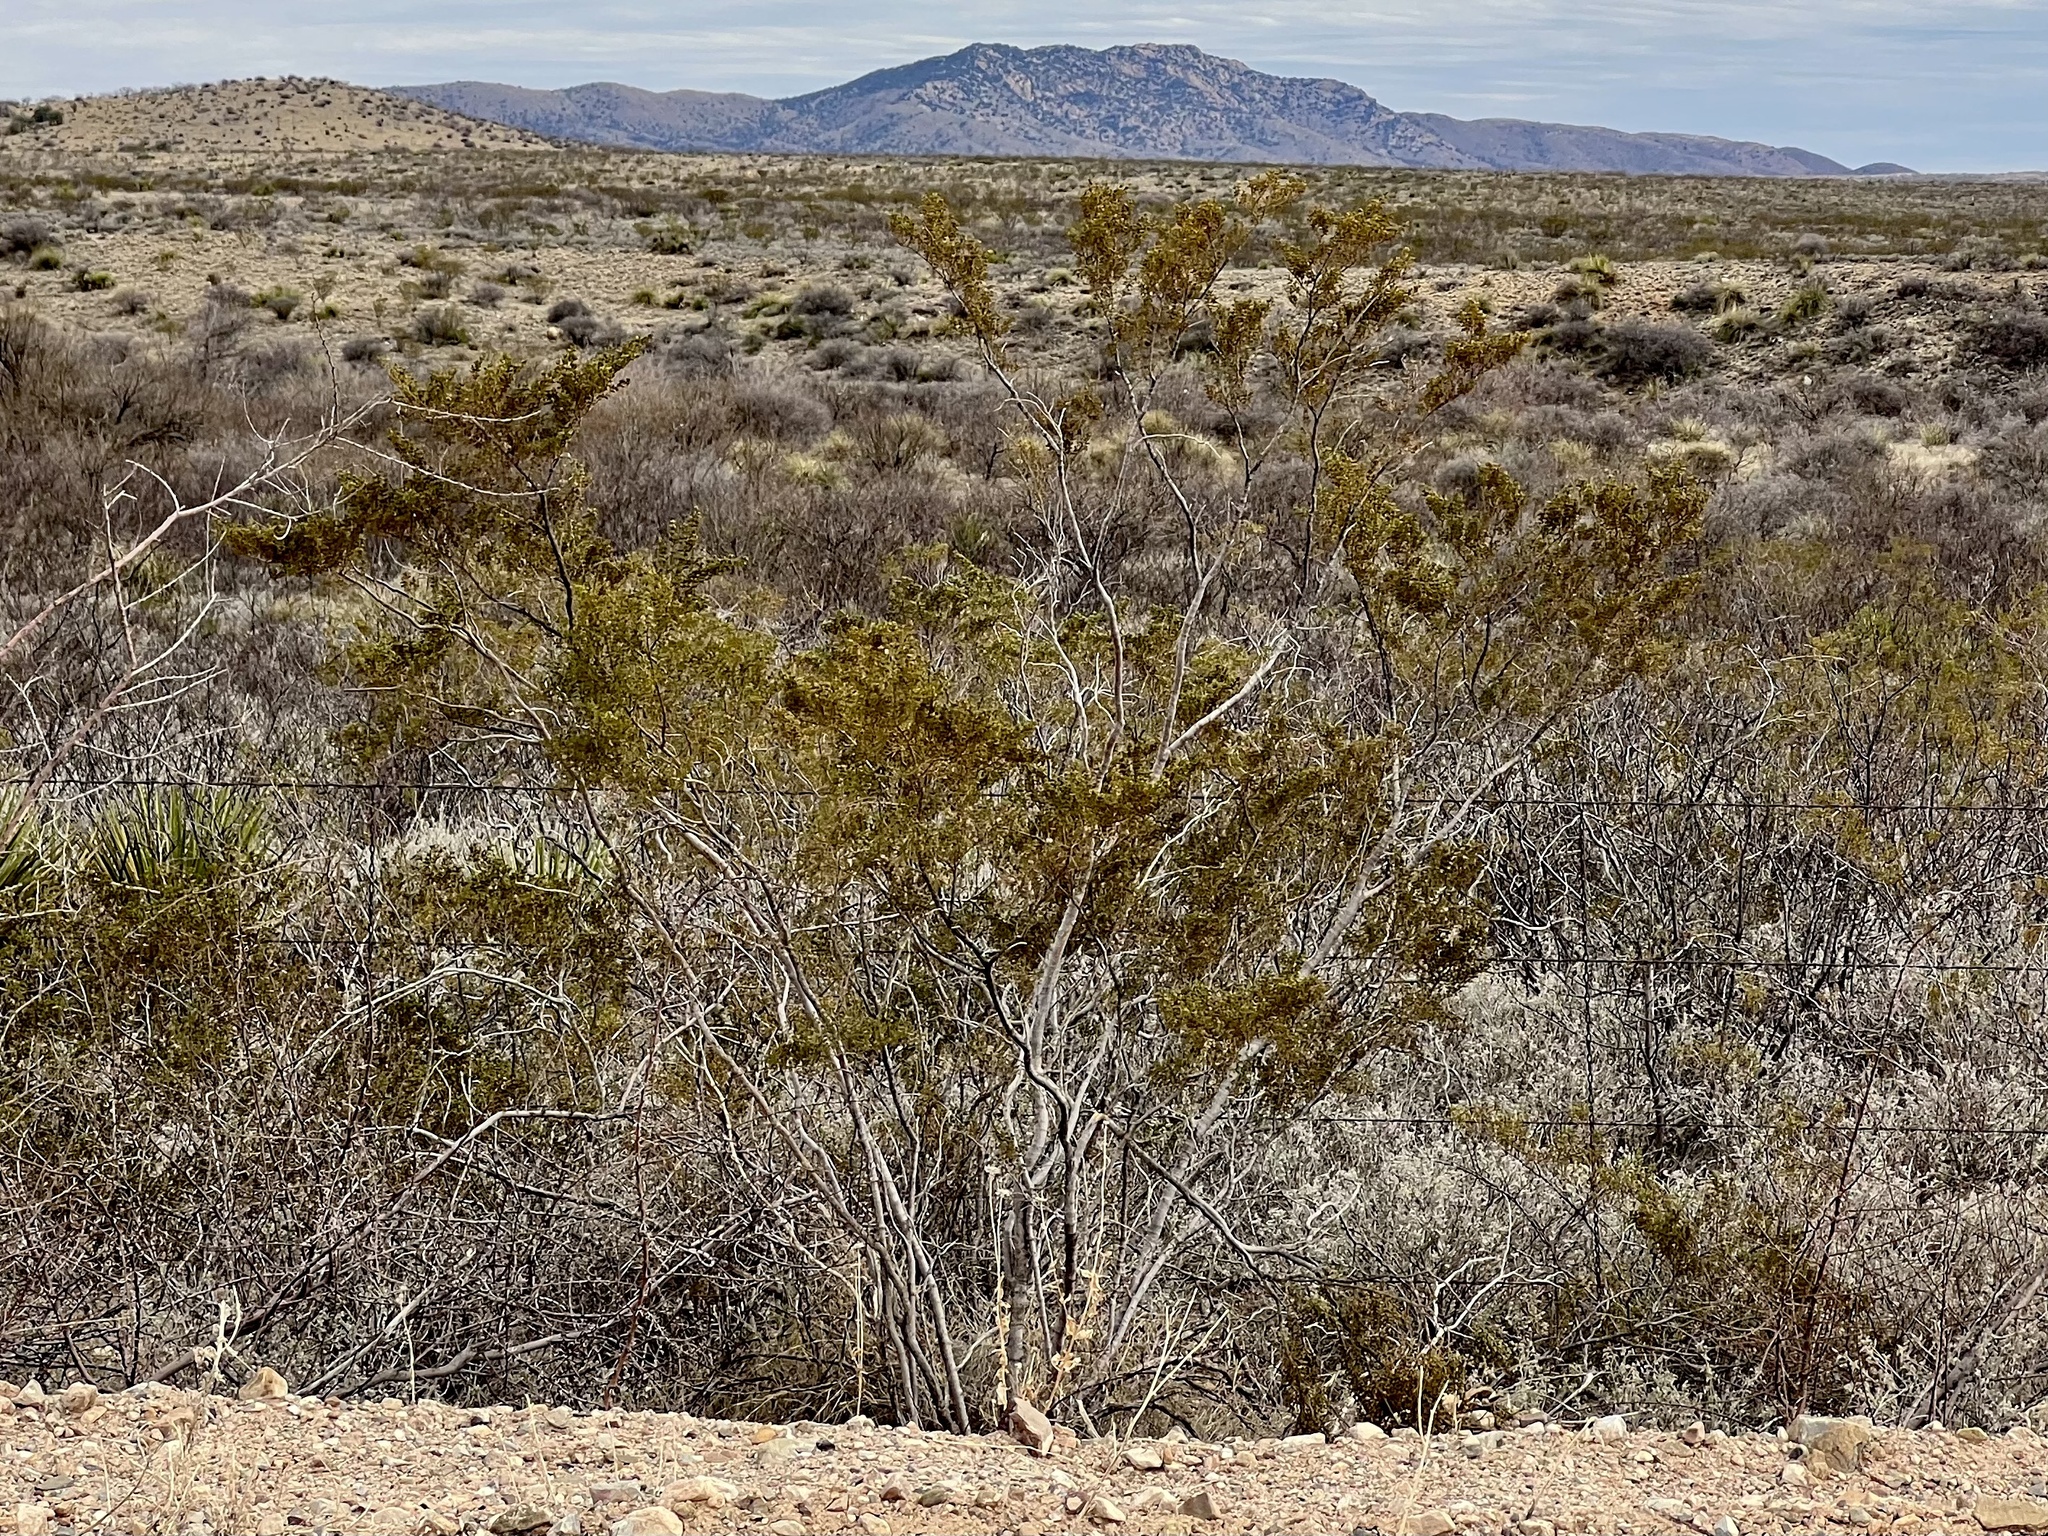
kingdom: Plantae
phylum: Tracheophyta
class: Magnoliopsida
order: Zygophyllales
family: Zygophyllaceae
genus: Larrea
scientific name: Larrea tridentata
